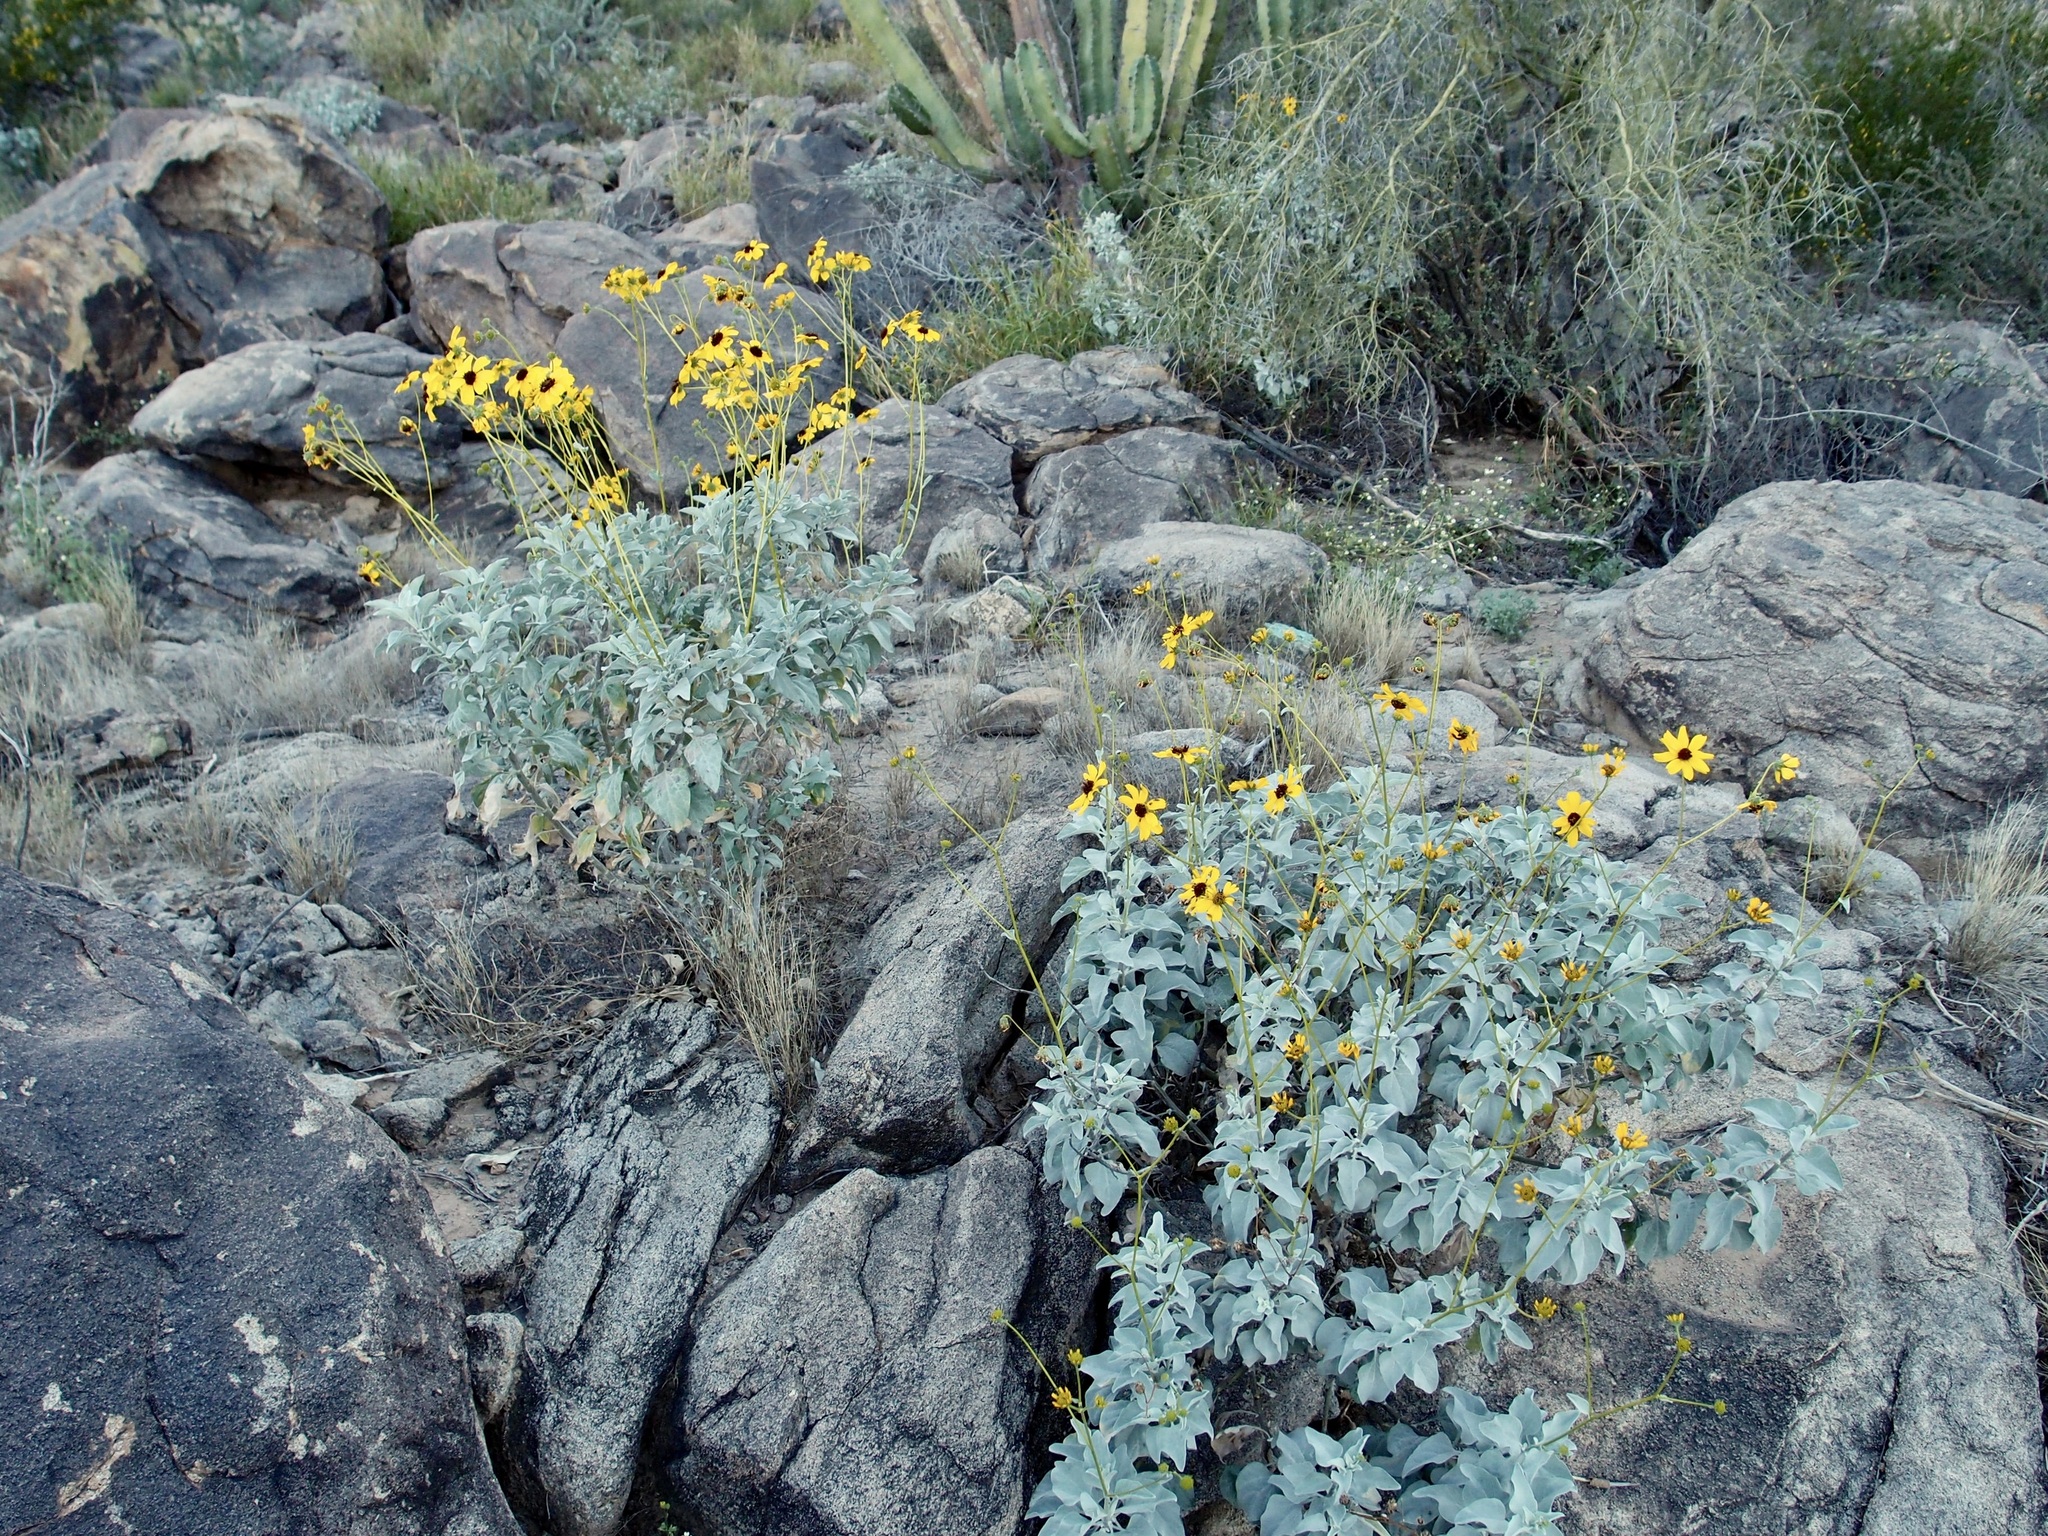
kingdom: Plantae
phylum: Tracheophyta
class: Magnoliopsida
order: Asterales
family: Asteraceae
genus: Encelia
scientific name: Encelia farinosa
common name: Brittlebush
